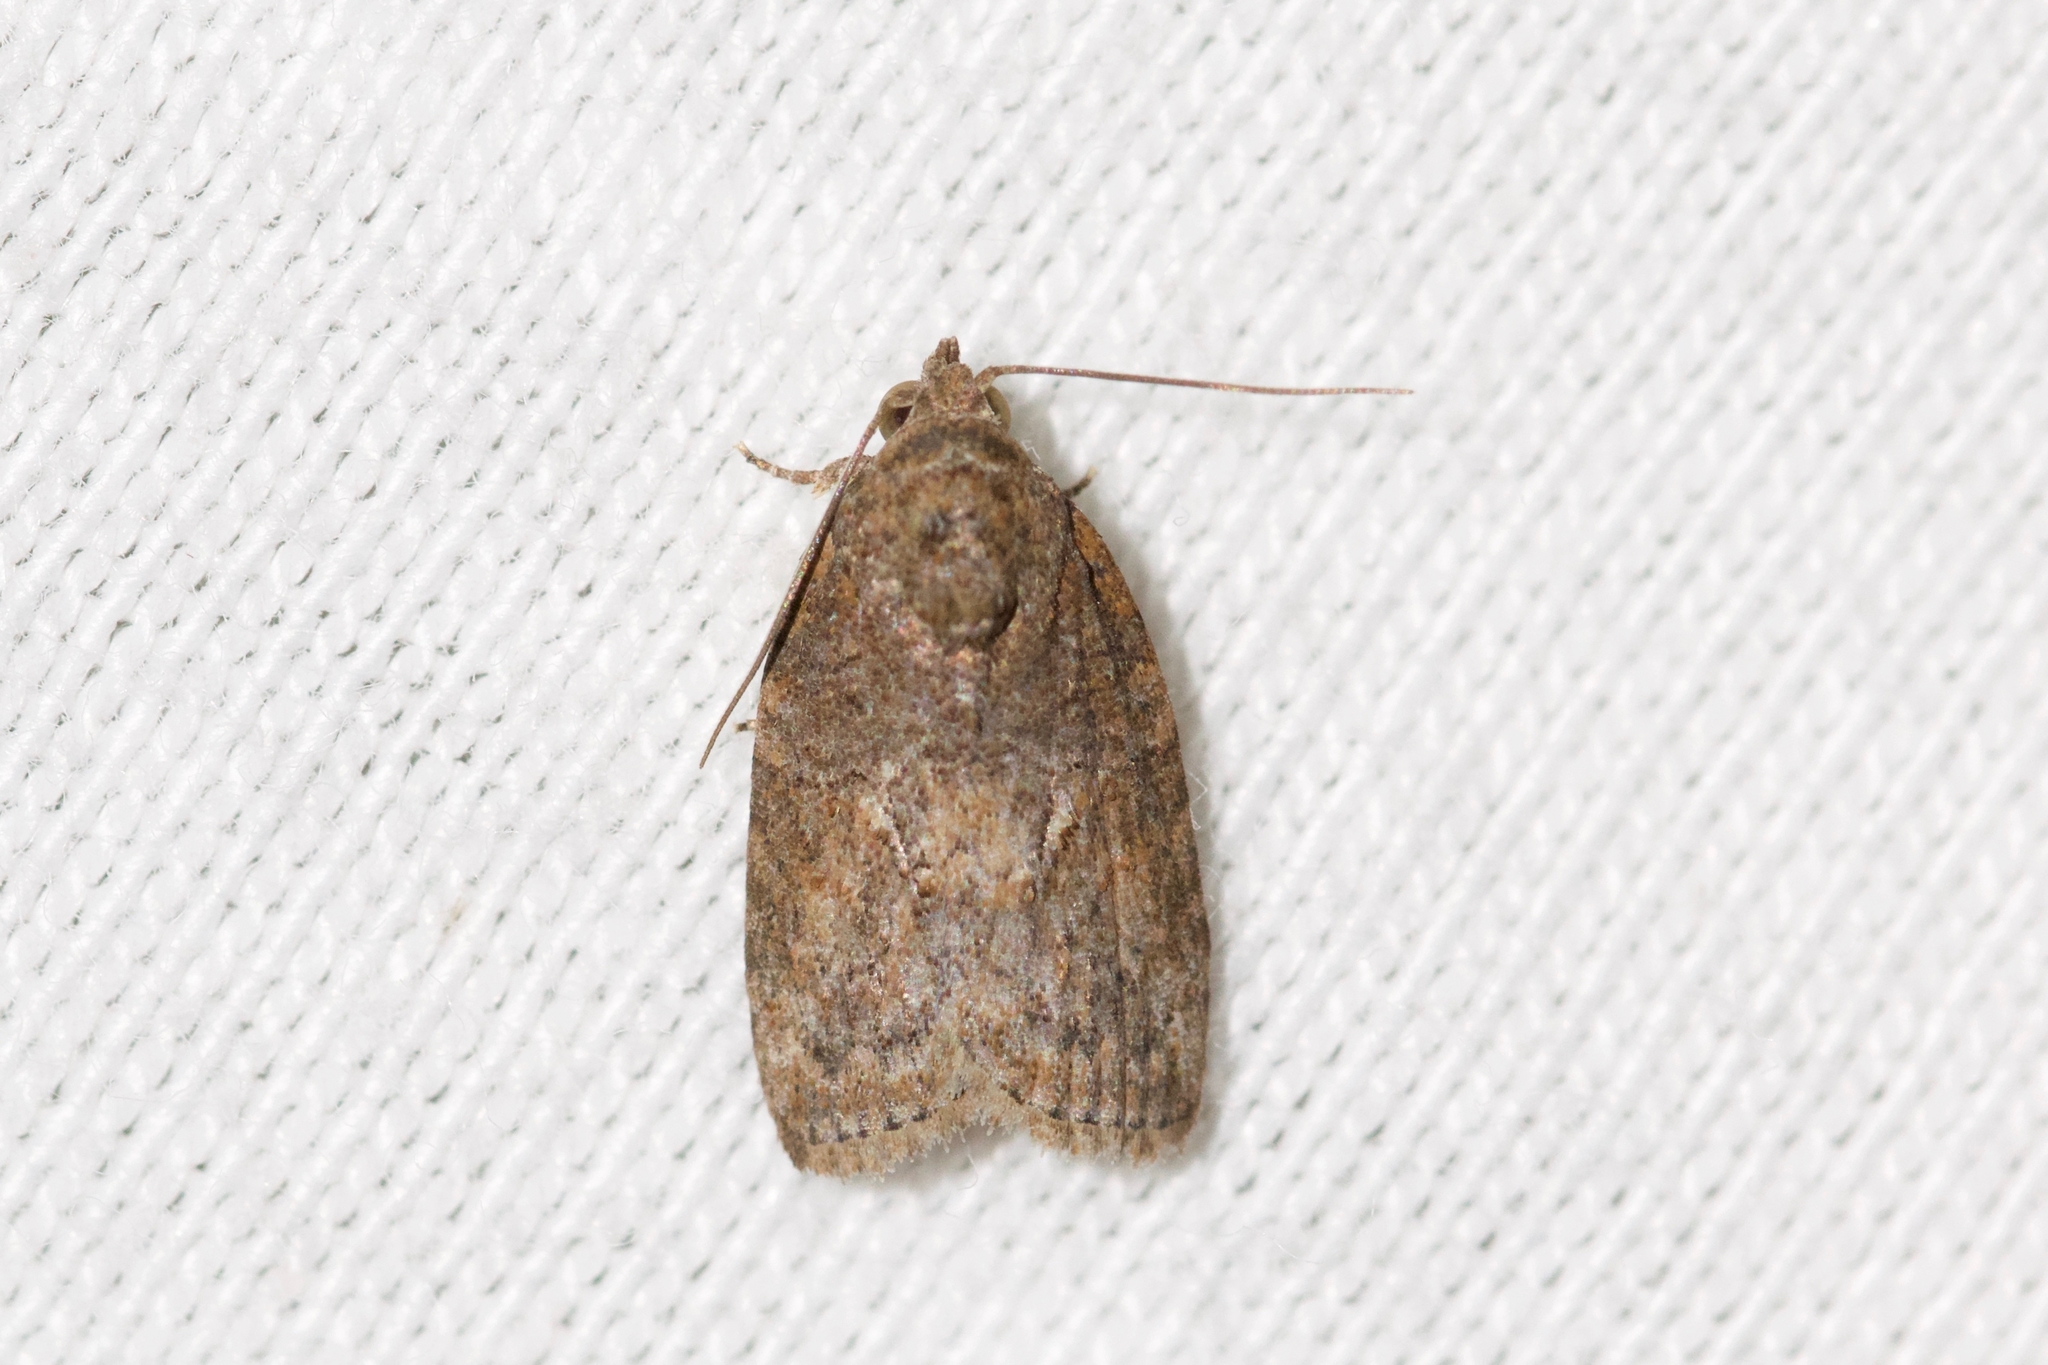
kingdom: Animalia
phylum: Arthropoda
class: Insecta
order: Lepidoptera
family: Nolidae
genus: Garella
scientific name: Garella nilotica
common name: Black-olive caterpillar moth
